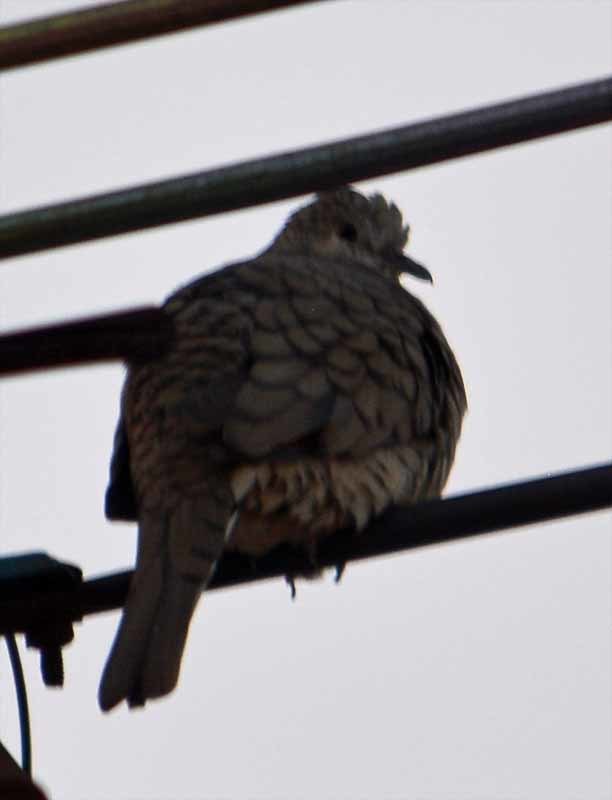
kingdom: Animalia
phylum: Chordata
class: Aves
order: Columbiformes
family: Columbidae
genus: Columbina
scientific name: Columbina inca
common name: Inca dove
